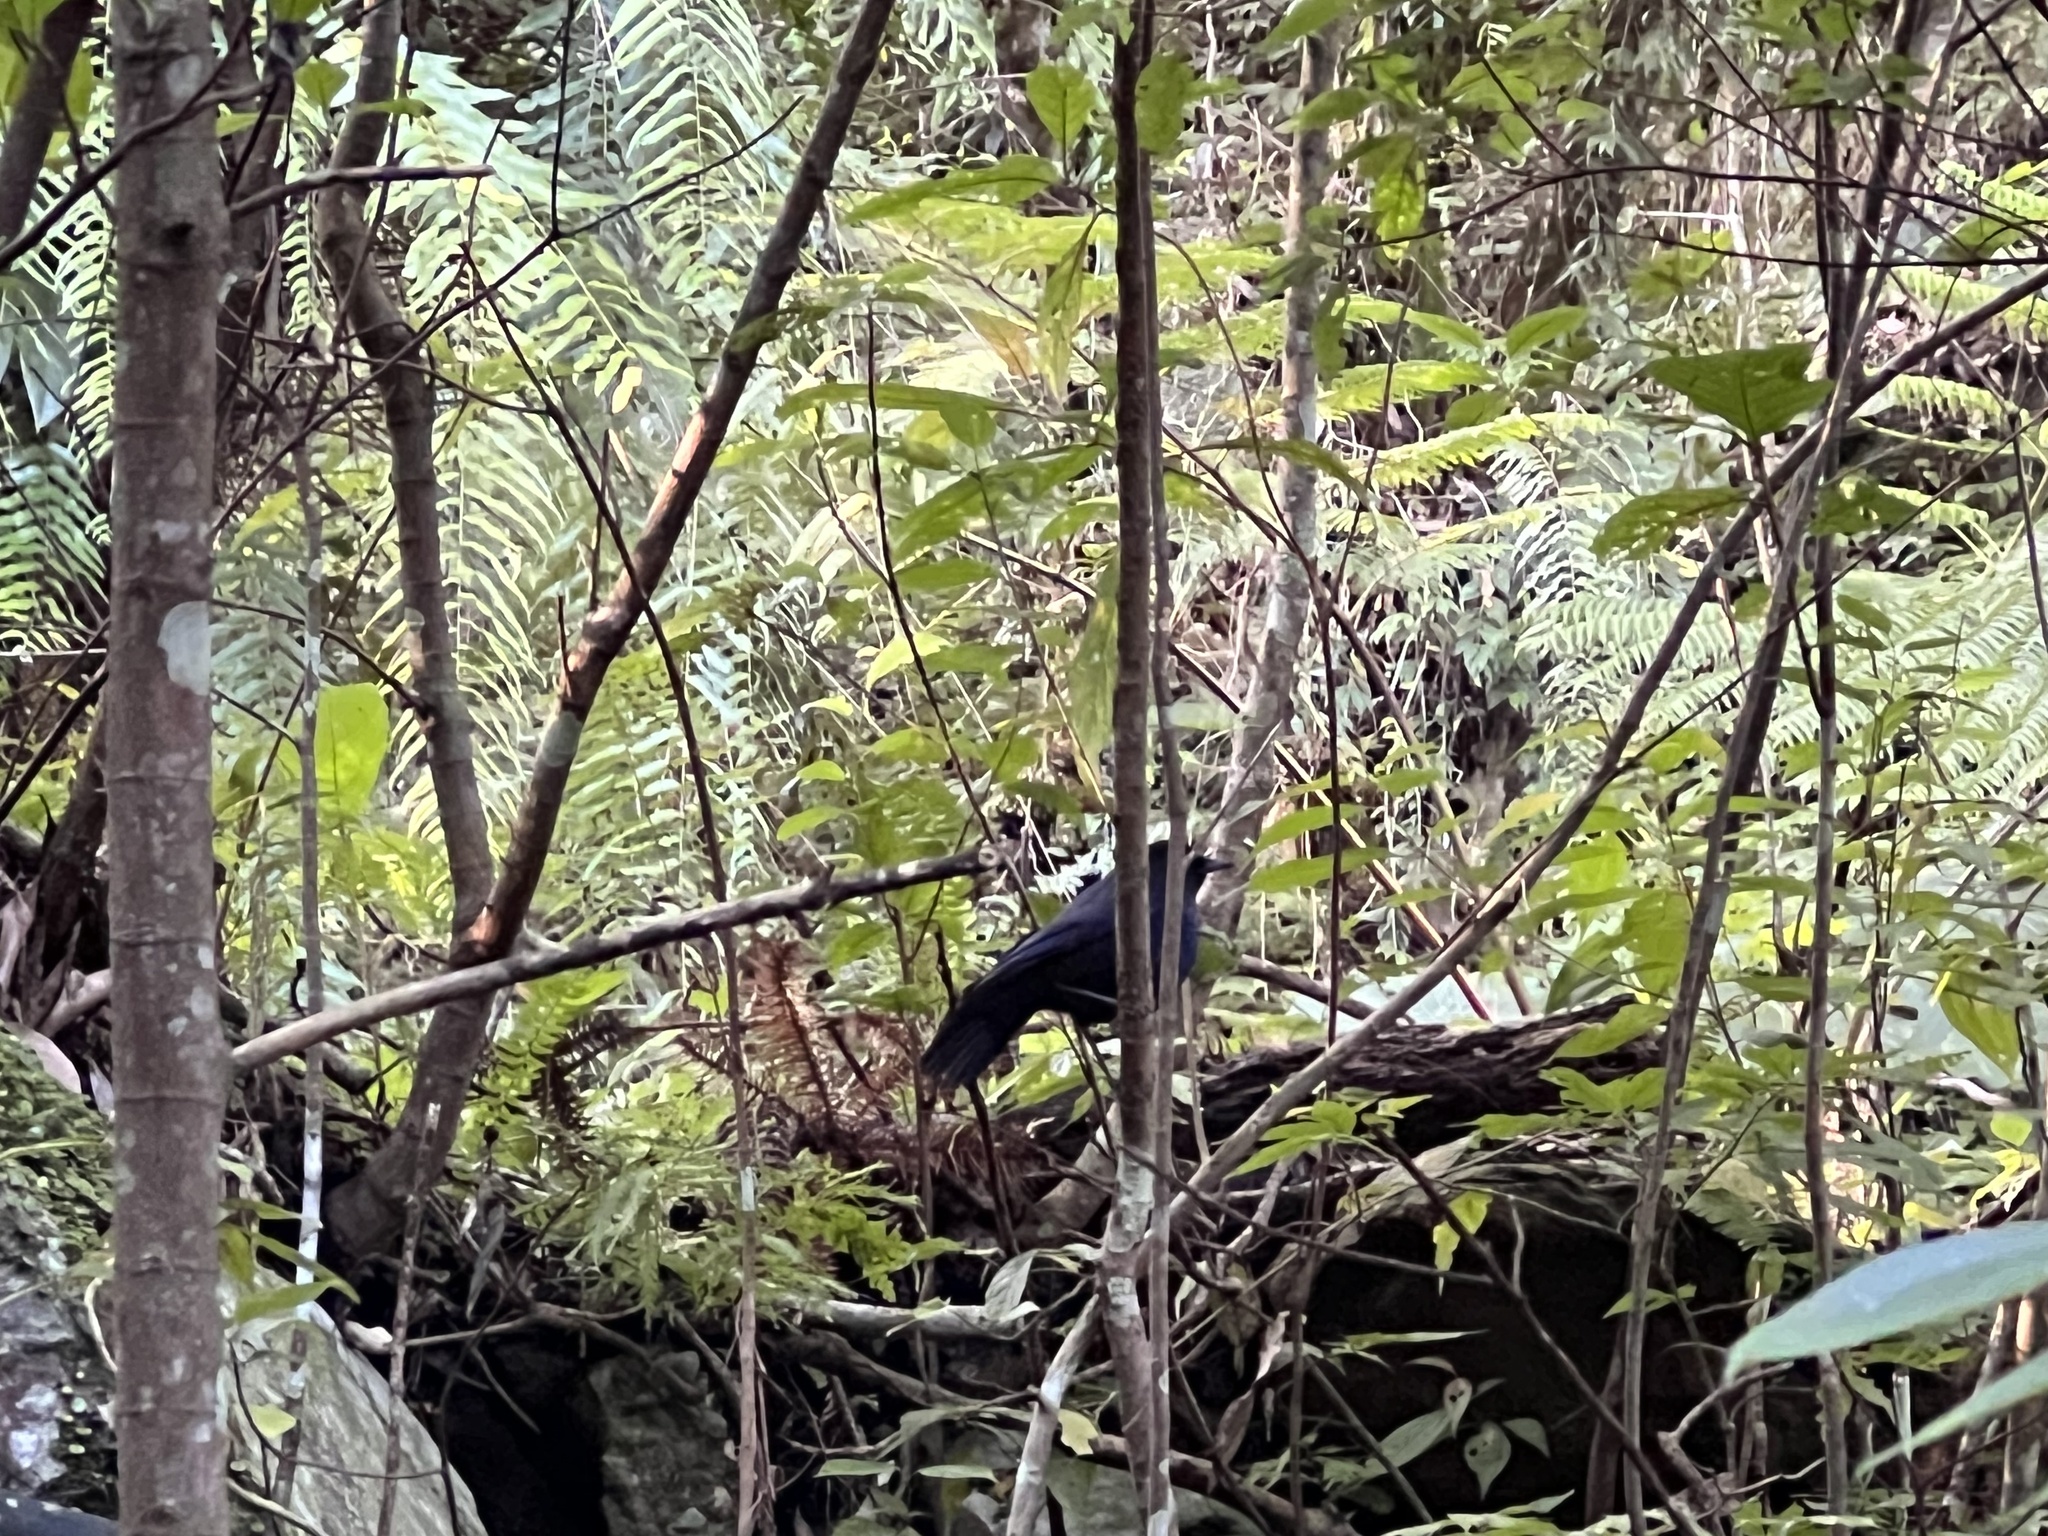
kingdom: Animalia
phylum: Chordata
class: Aves
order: Passeriformes
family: Muscicapidae
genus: Myophonus
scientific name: Myophonus insularis
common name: Taiwan whistling-thrush
